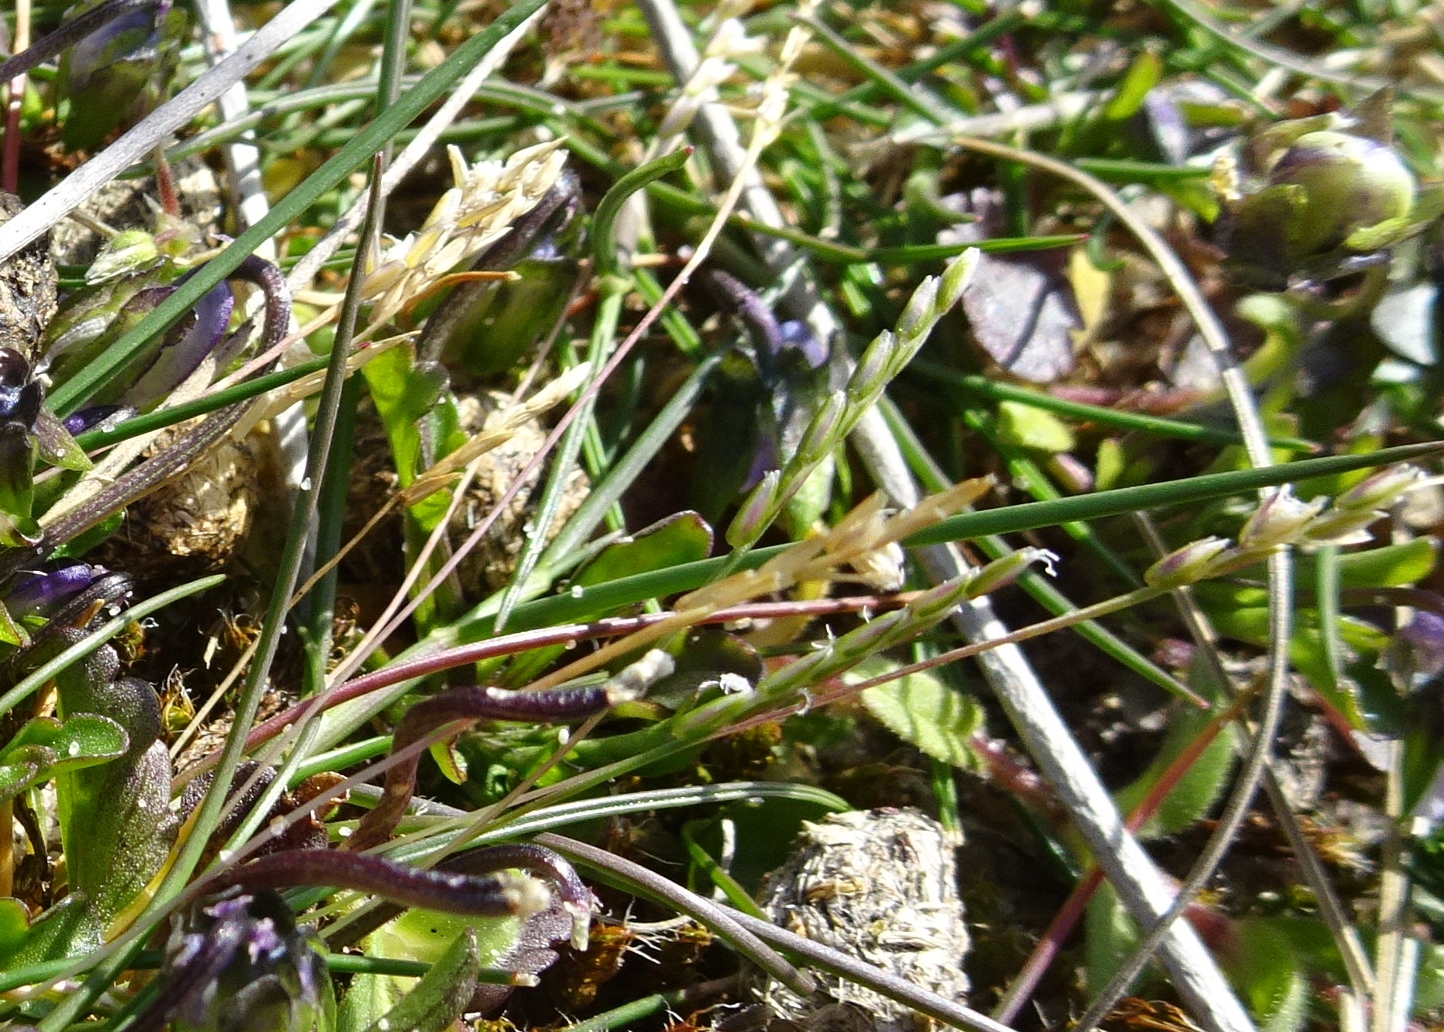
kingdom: Plantae
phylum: Tracheophyta
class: Liliopsida
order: Poales
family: Poaceae
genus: Danthonia
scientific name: Danthonia decumbens
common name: Common heathgrass
